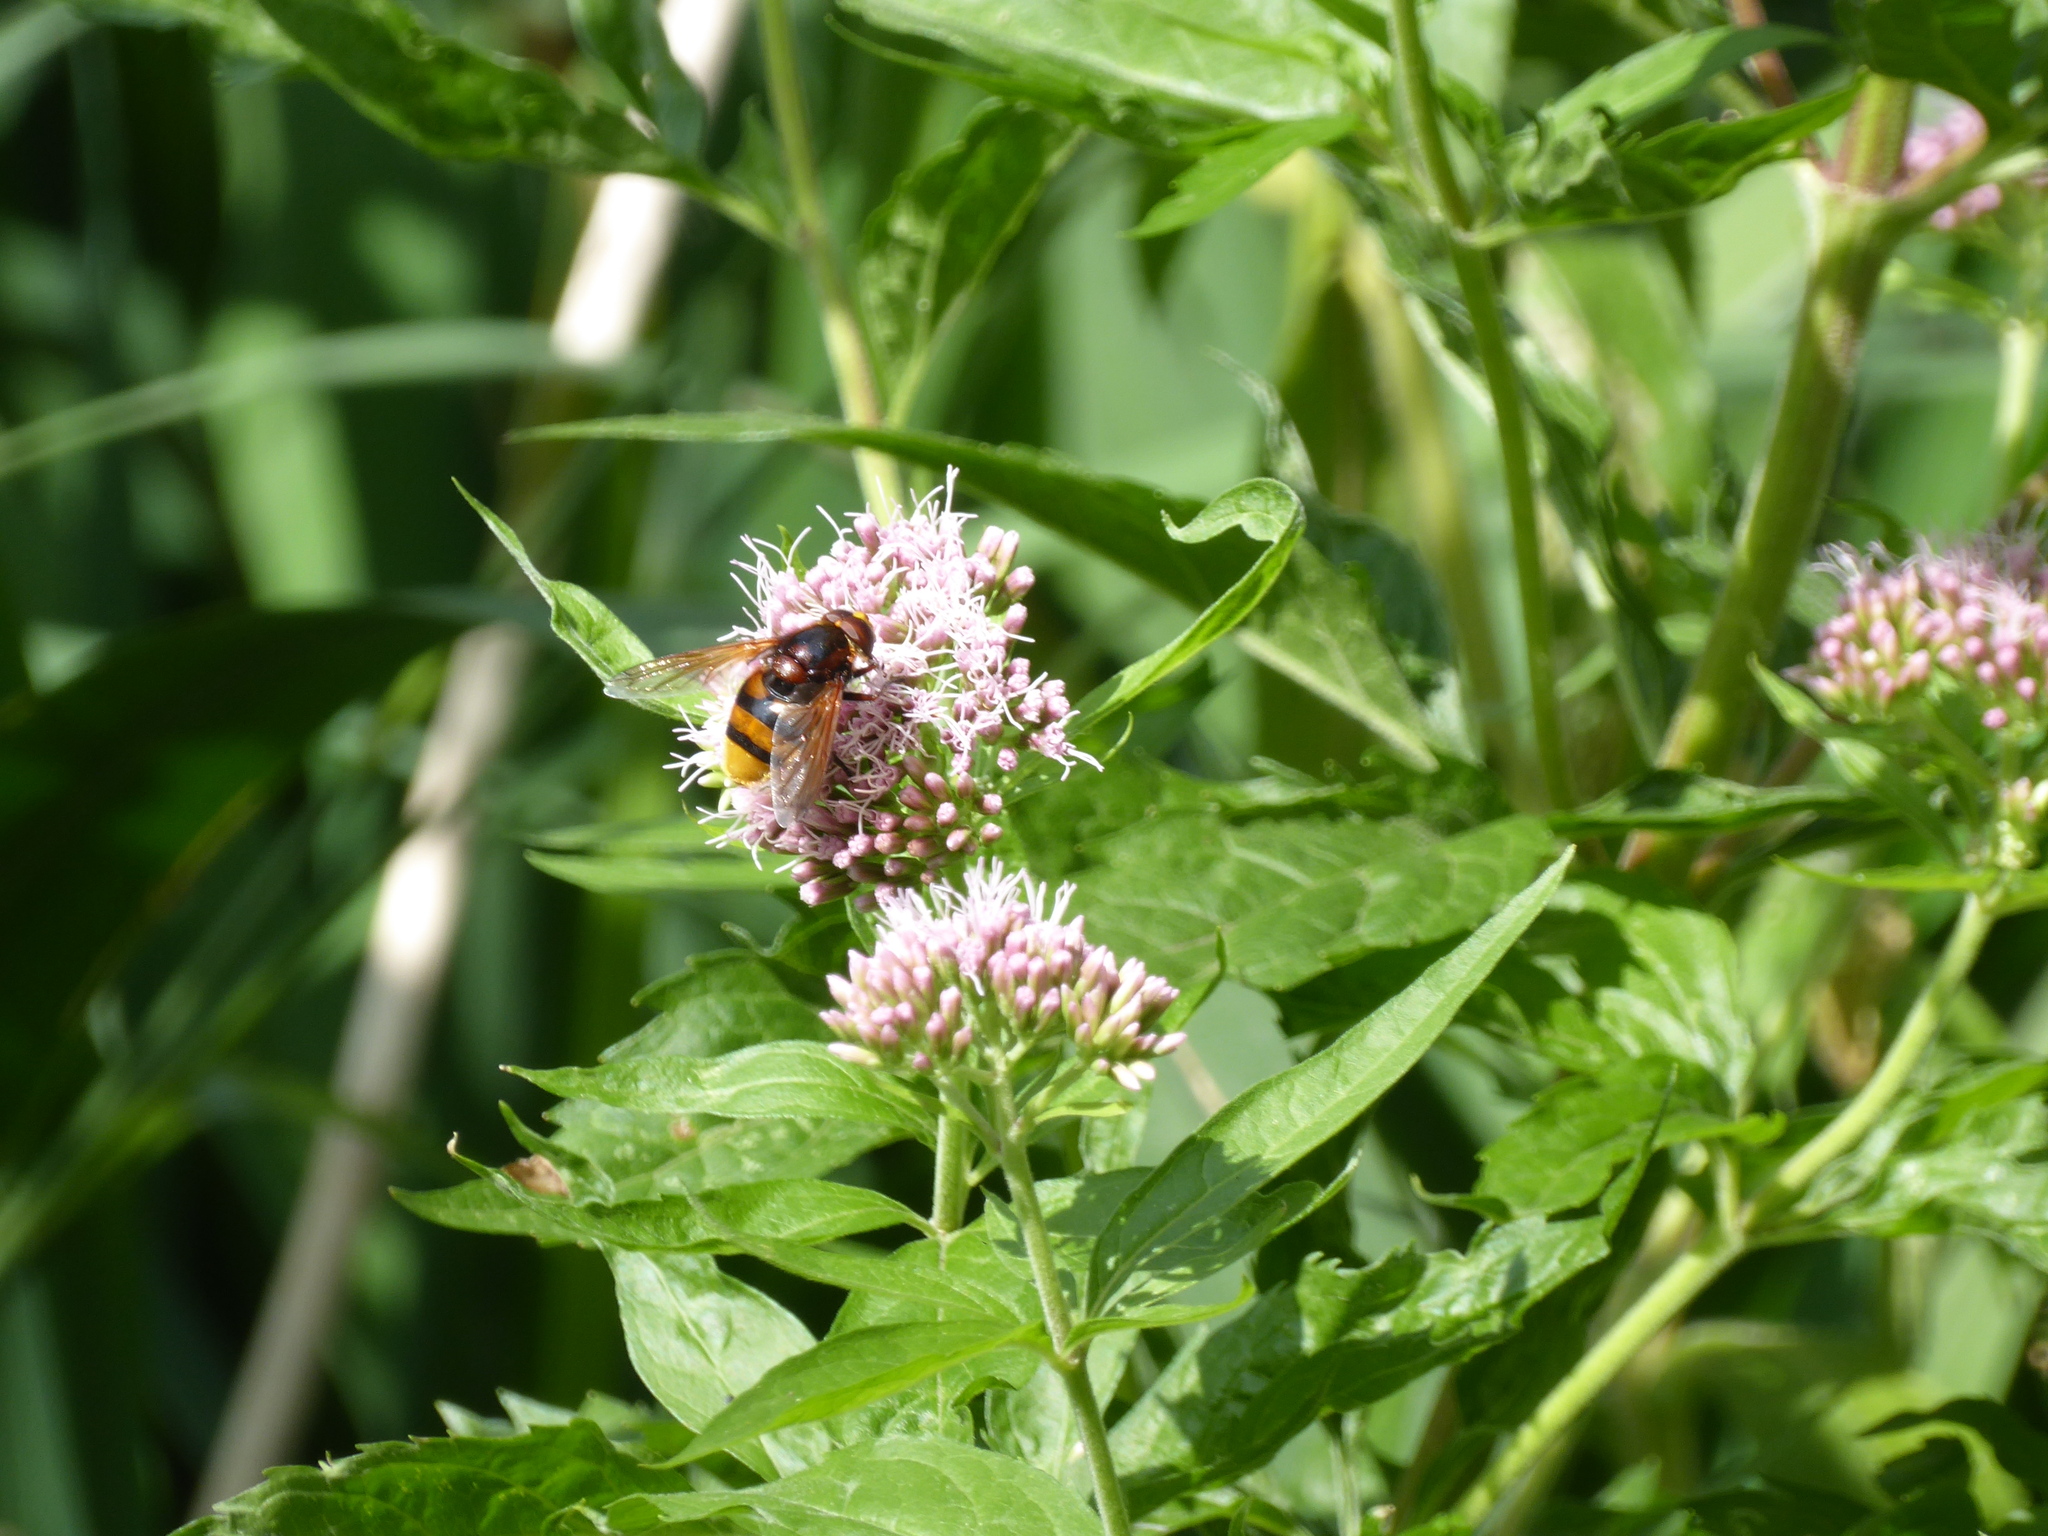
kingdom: Animalia
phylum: Arthropoda
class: Insecta
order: Diptera
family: Syrphidae
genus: Volucella
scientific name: Volucella zonaria
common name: Hornet hoverfly
